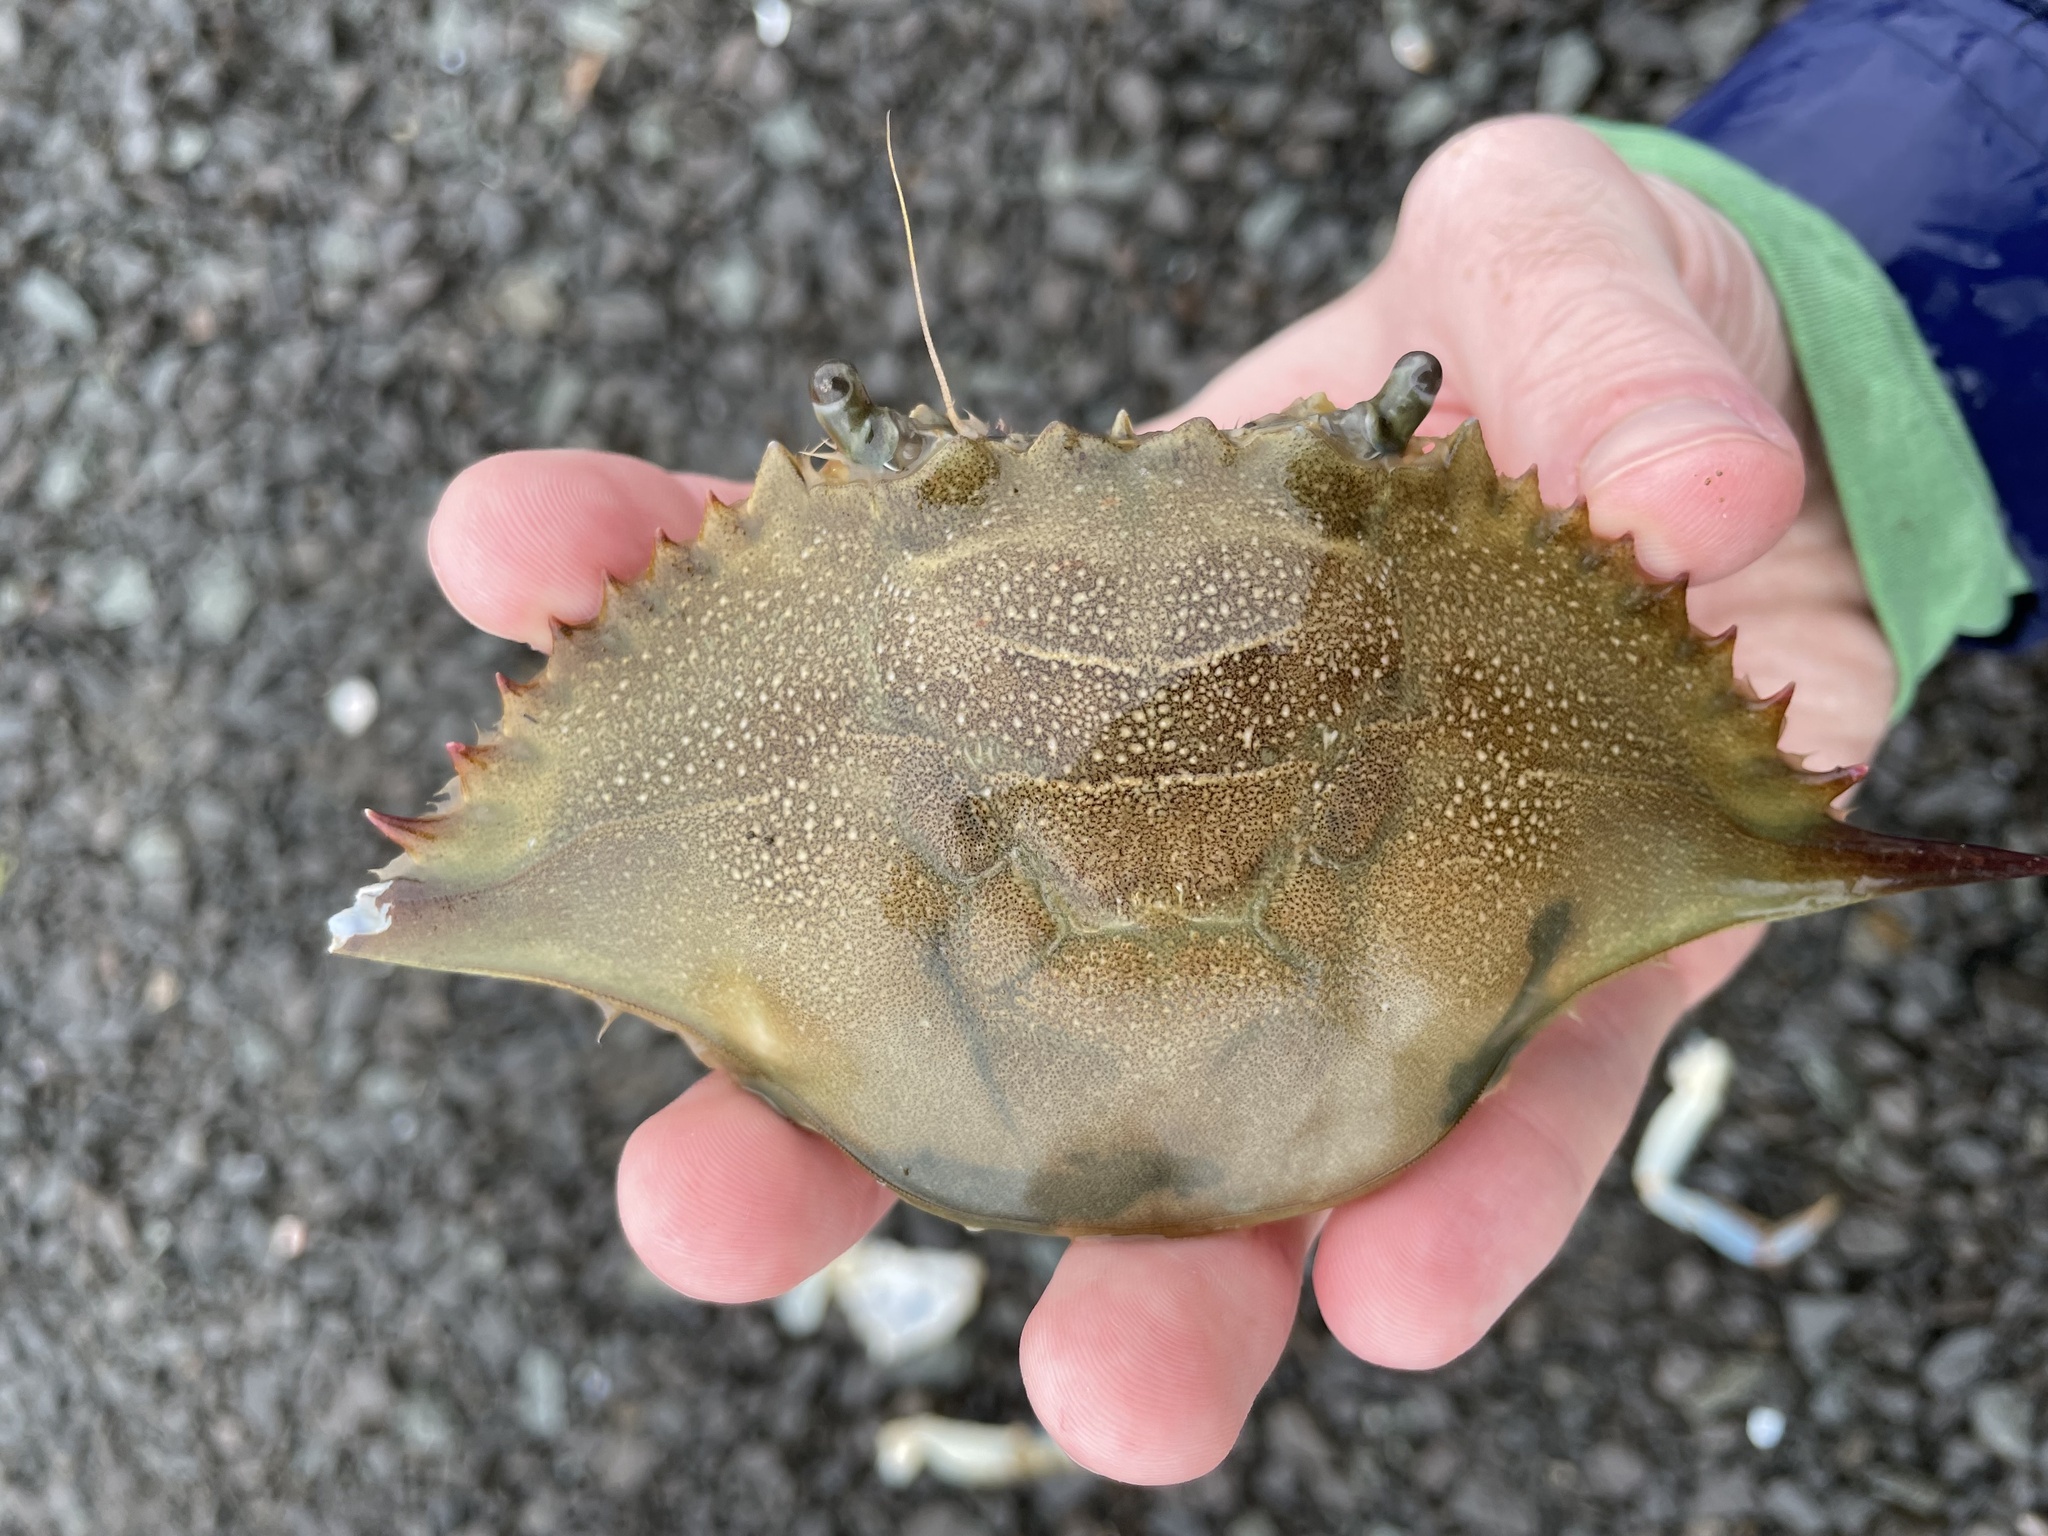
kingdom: Animalia
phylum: Arthropoda
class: Malacostraca
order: Decapoda
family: Portunidae
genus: Callinectes
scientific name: Callinectes sapidus
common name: Blue crab
